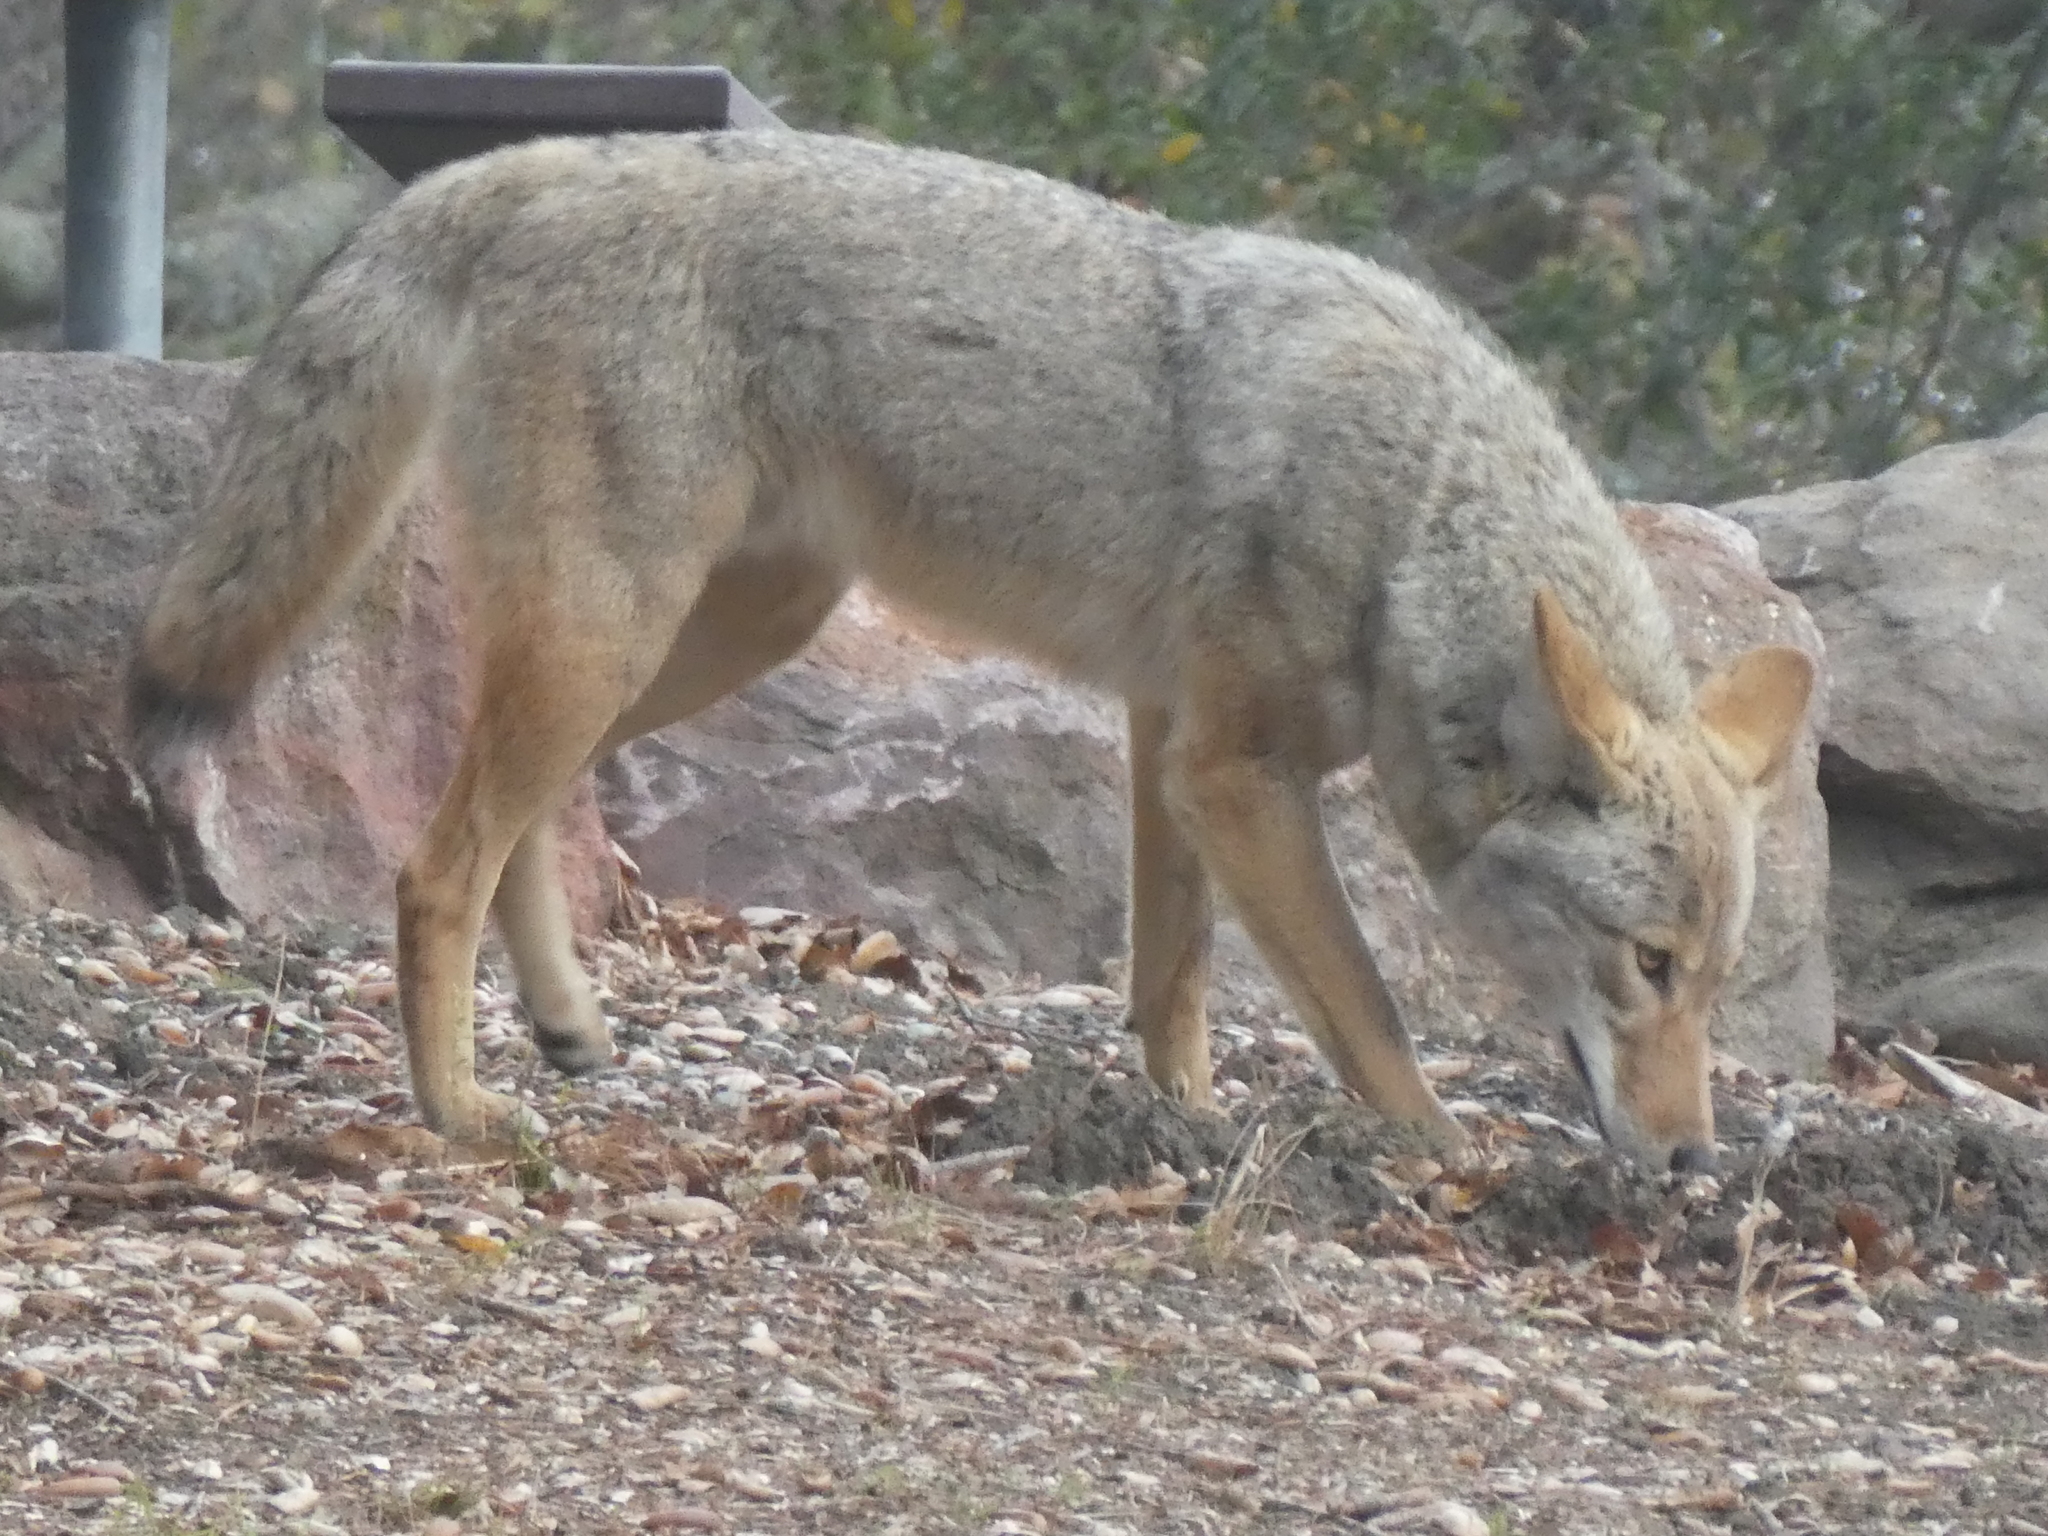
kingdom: Animalia
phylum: Chordata
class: Mammalia
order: Carnivora
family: Canidae
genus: Canis
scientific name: Canis latrans
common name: Coyote
